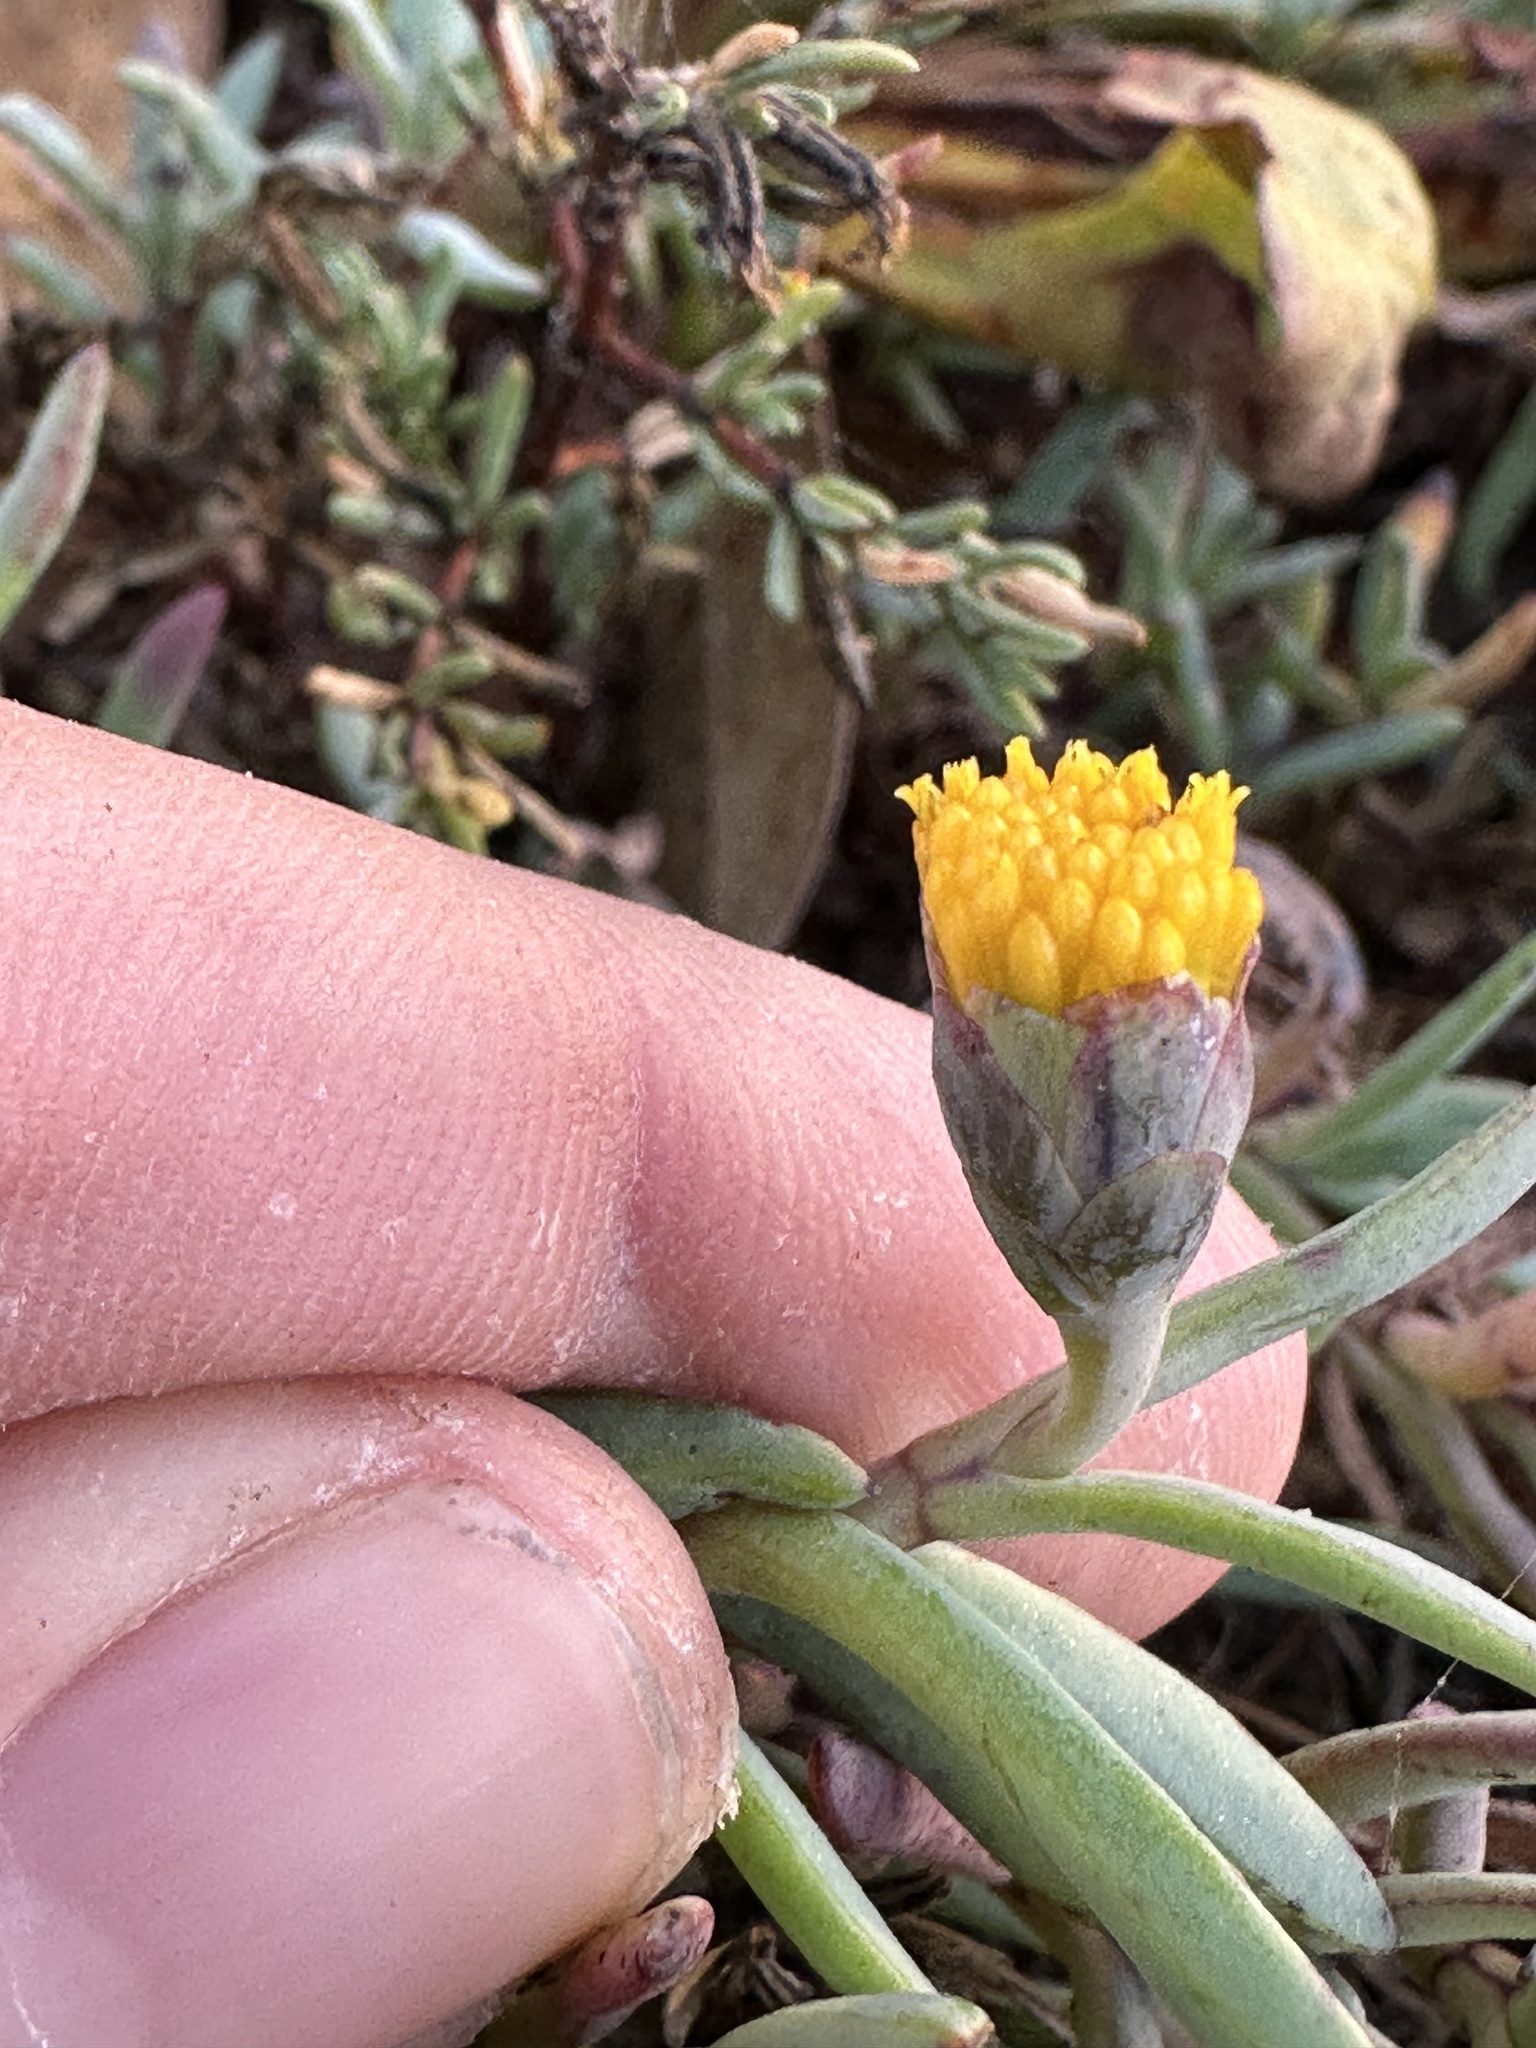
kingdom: Plantae
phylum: Tracheophyta
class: Magnoliopsida
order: Asterales
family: Asteraceae
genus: Jaumea
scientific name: Jaumea carnosa
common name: Fleshy jaumea
